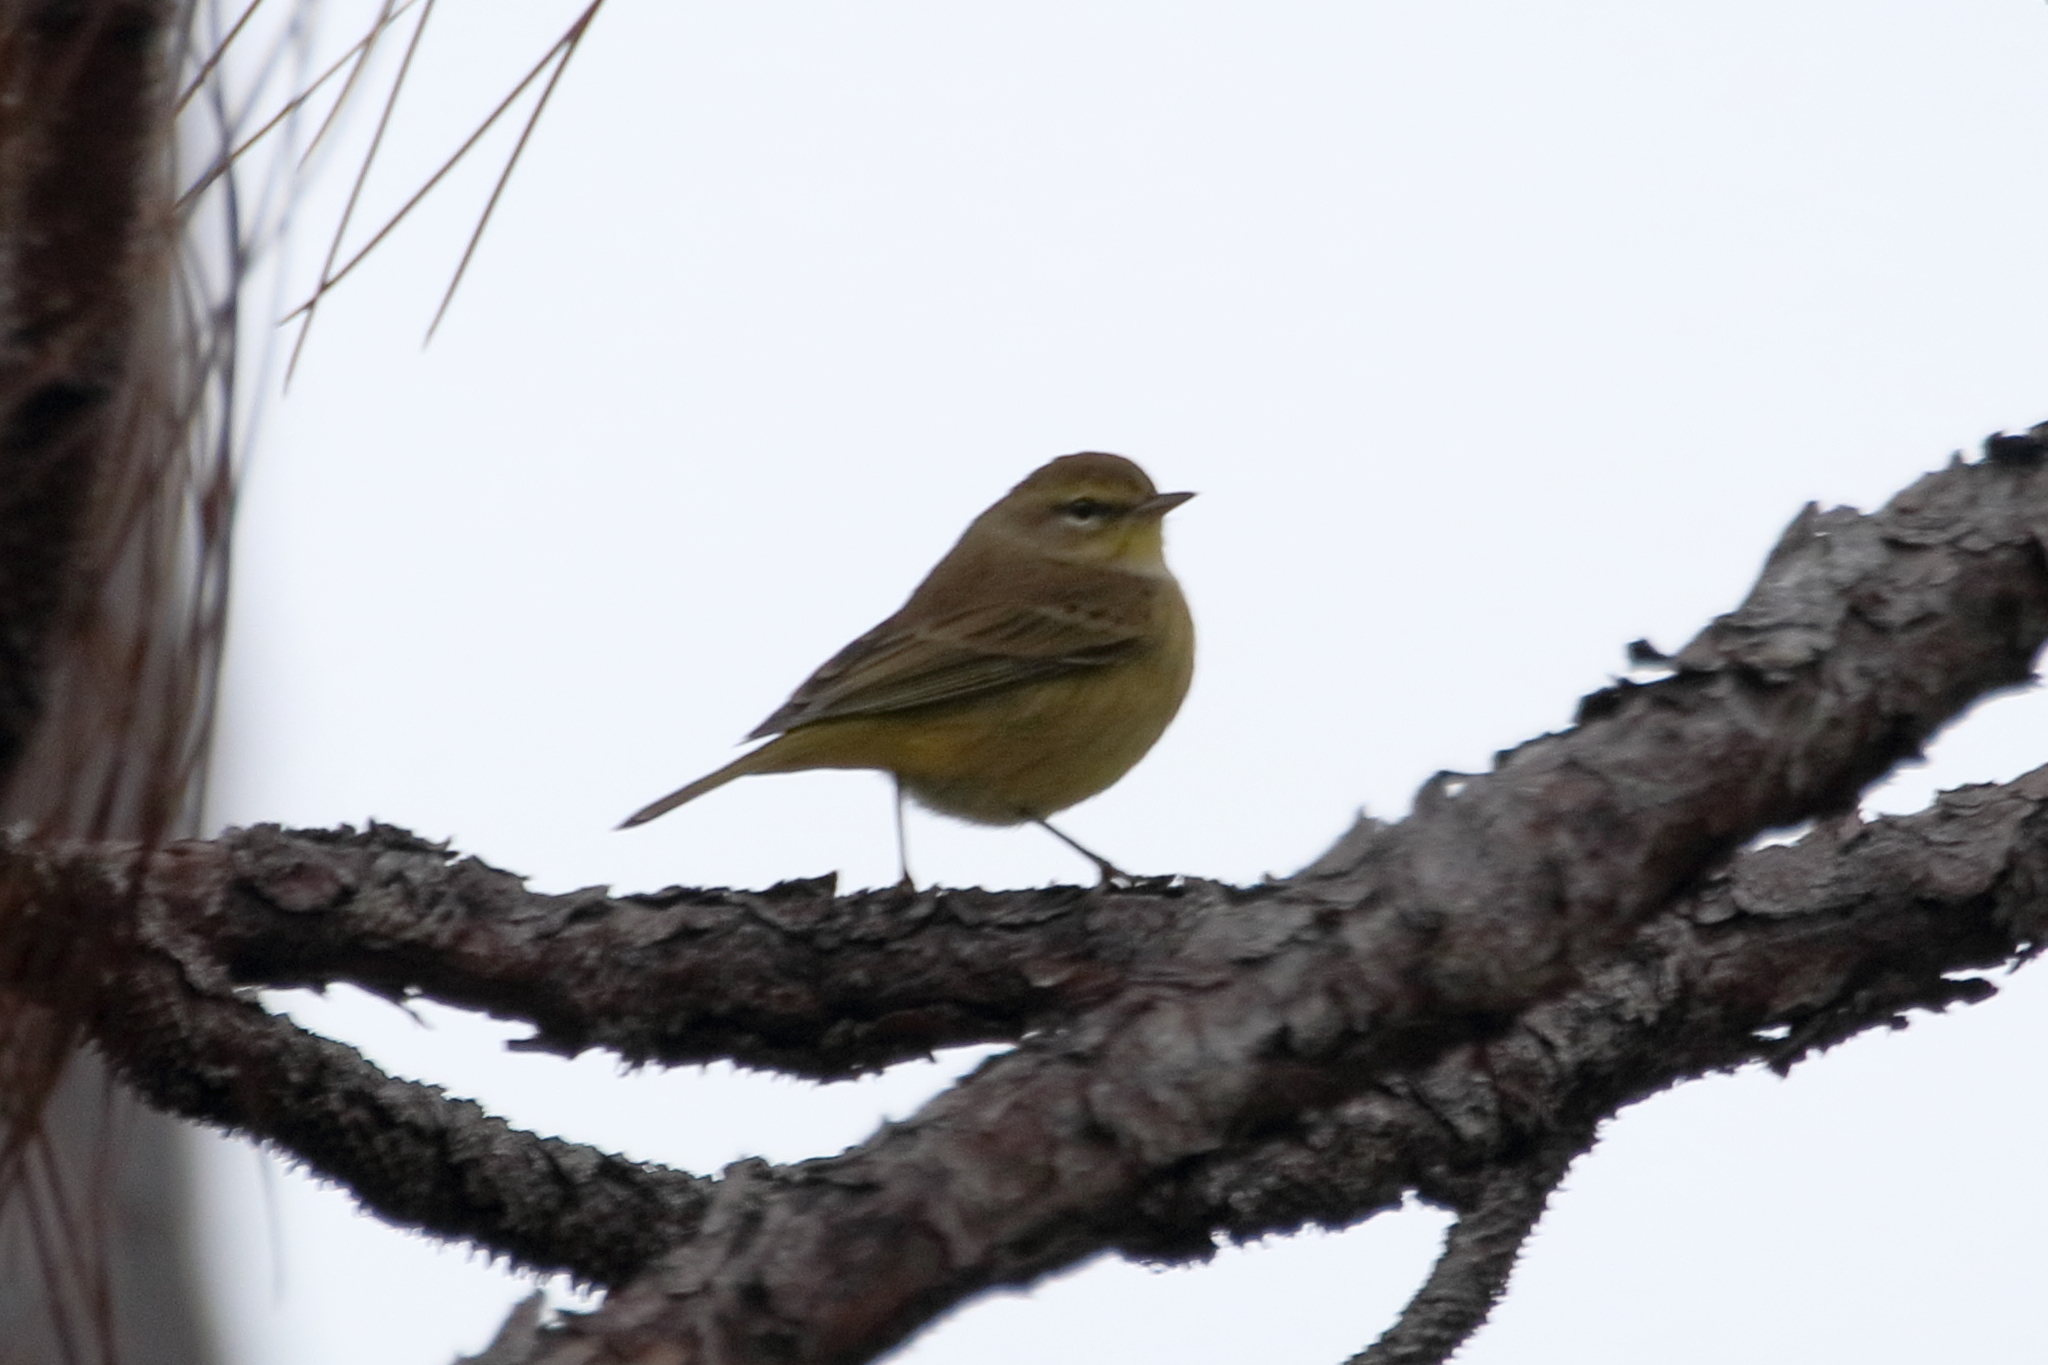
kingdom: Animalia
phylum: Chordata
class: Aves
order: Passeriformes
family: Parulidae
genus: Setophaga
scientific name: Setophaga palmarum
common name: Palm warbler
